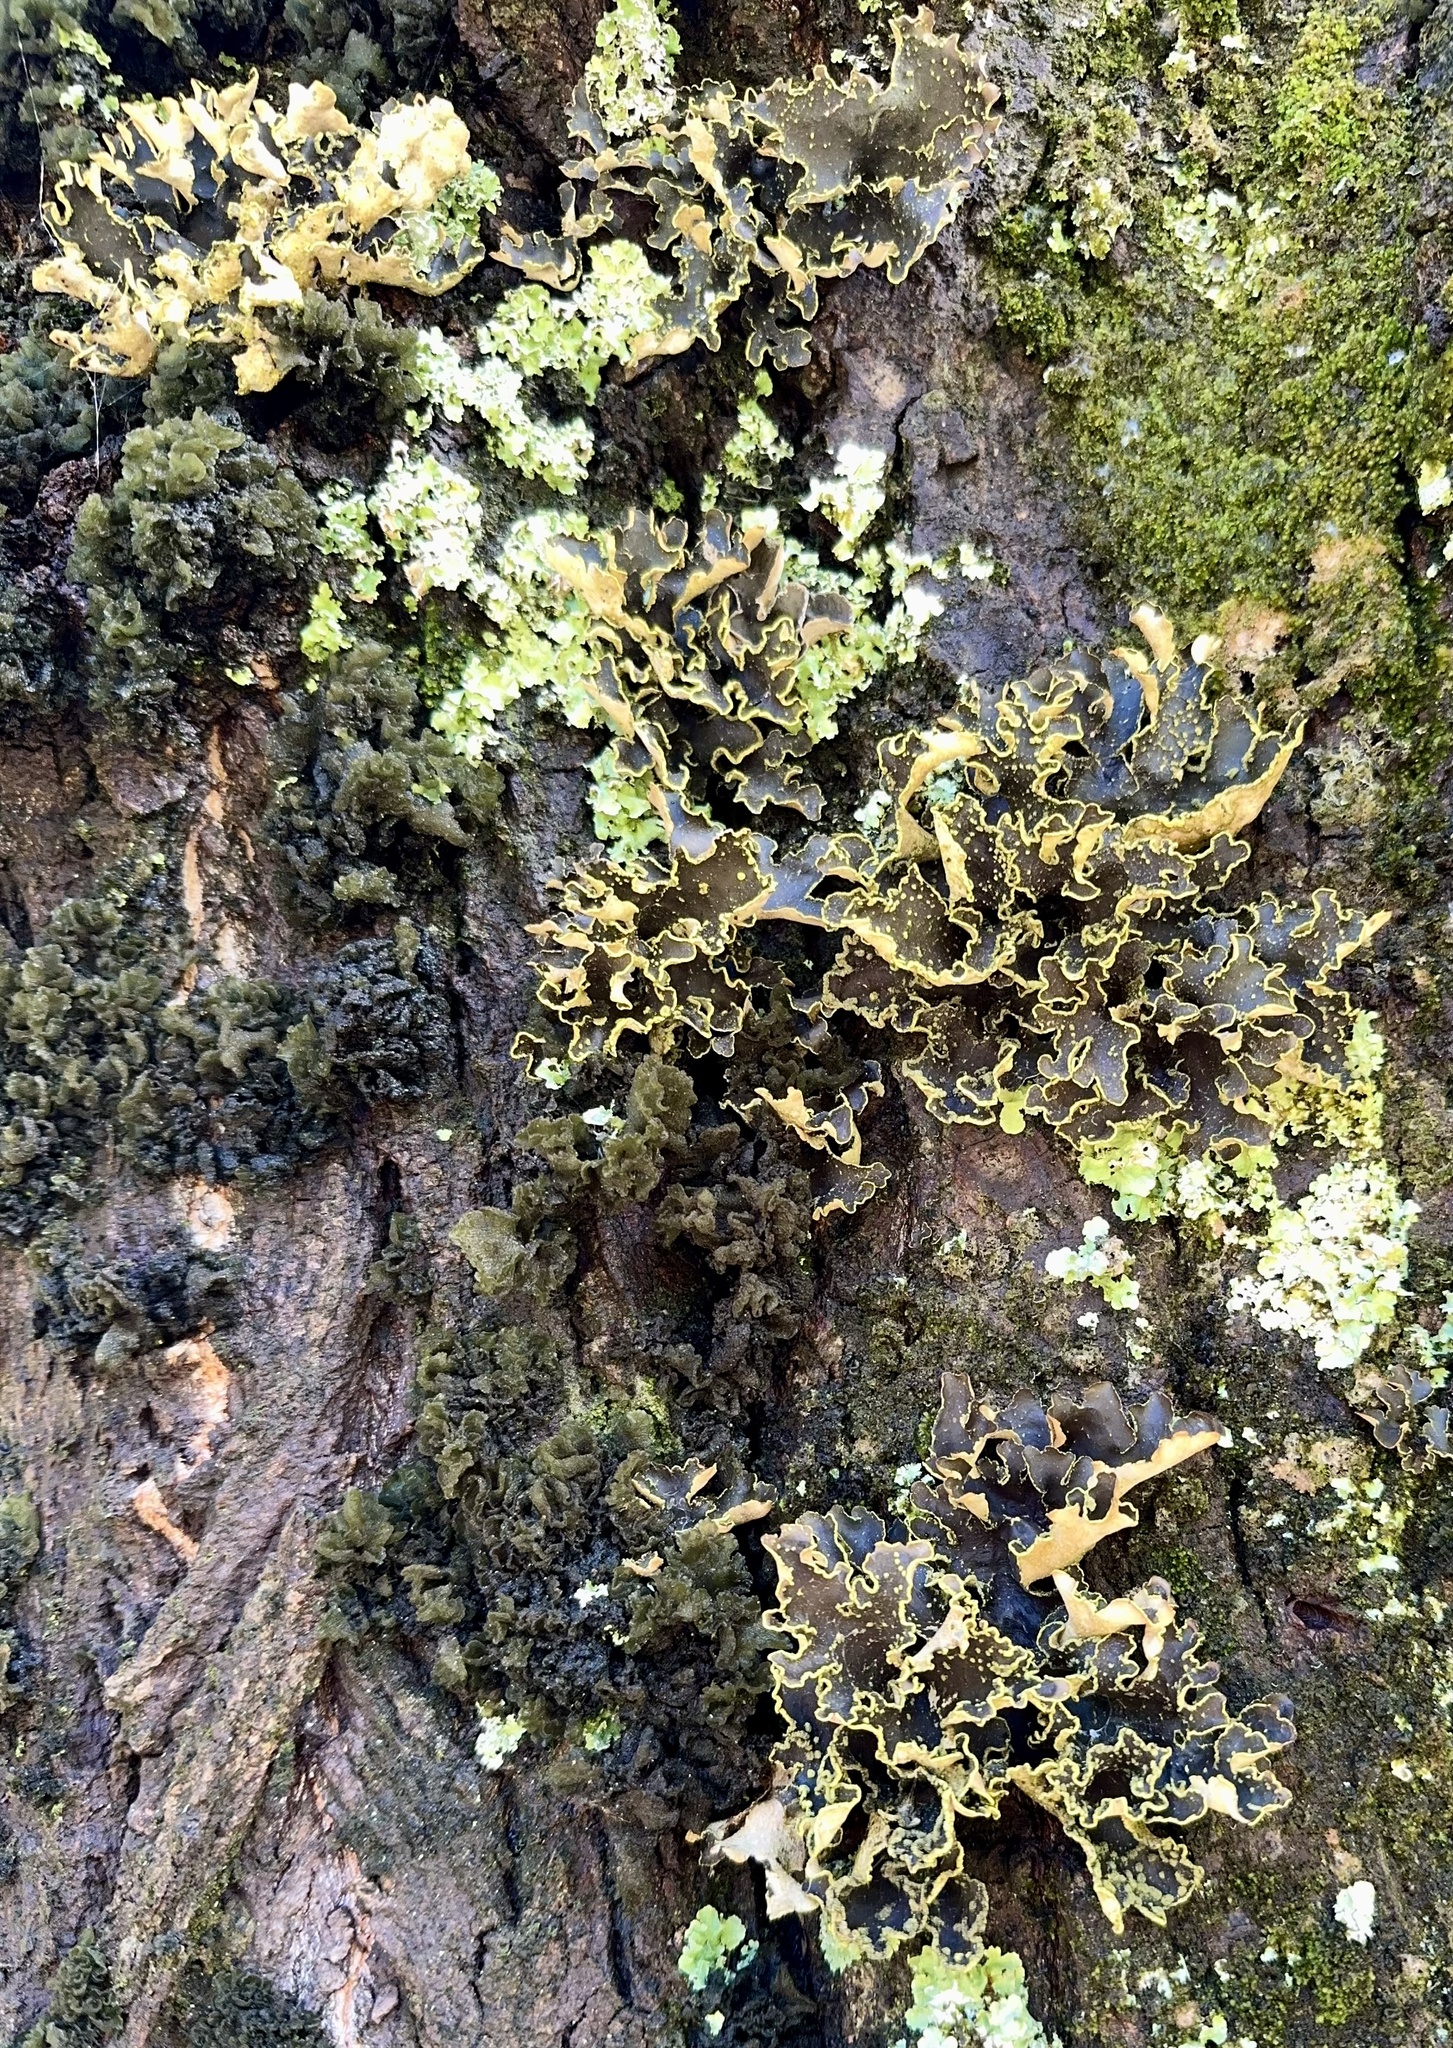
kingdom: Fungi
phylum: Ascomycota
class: Lecanoromycetes
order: Peltigerales
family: Lobariaceae
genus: Pseudocyphellaria
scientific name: Pseudocyphellaria crocata
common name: Golden specklebelly
